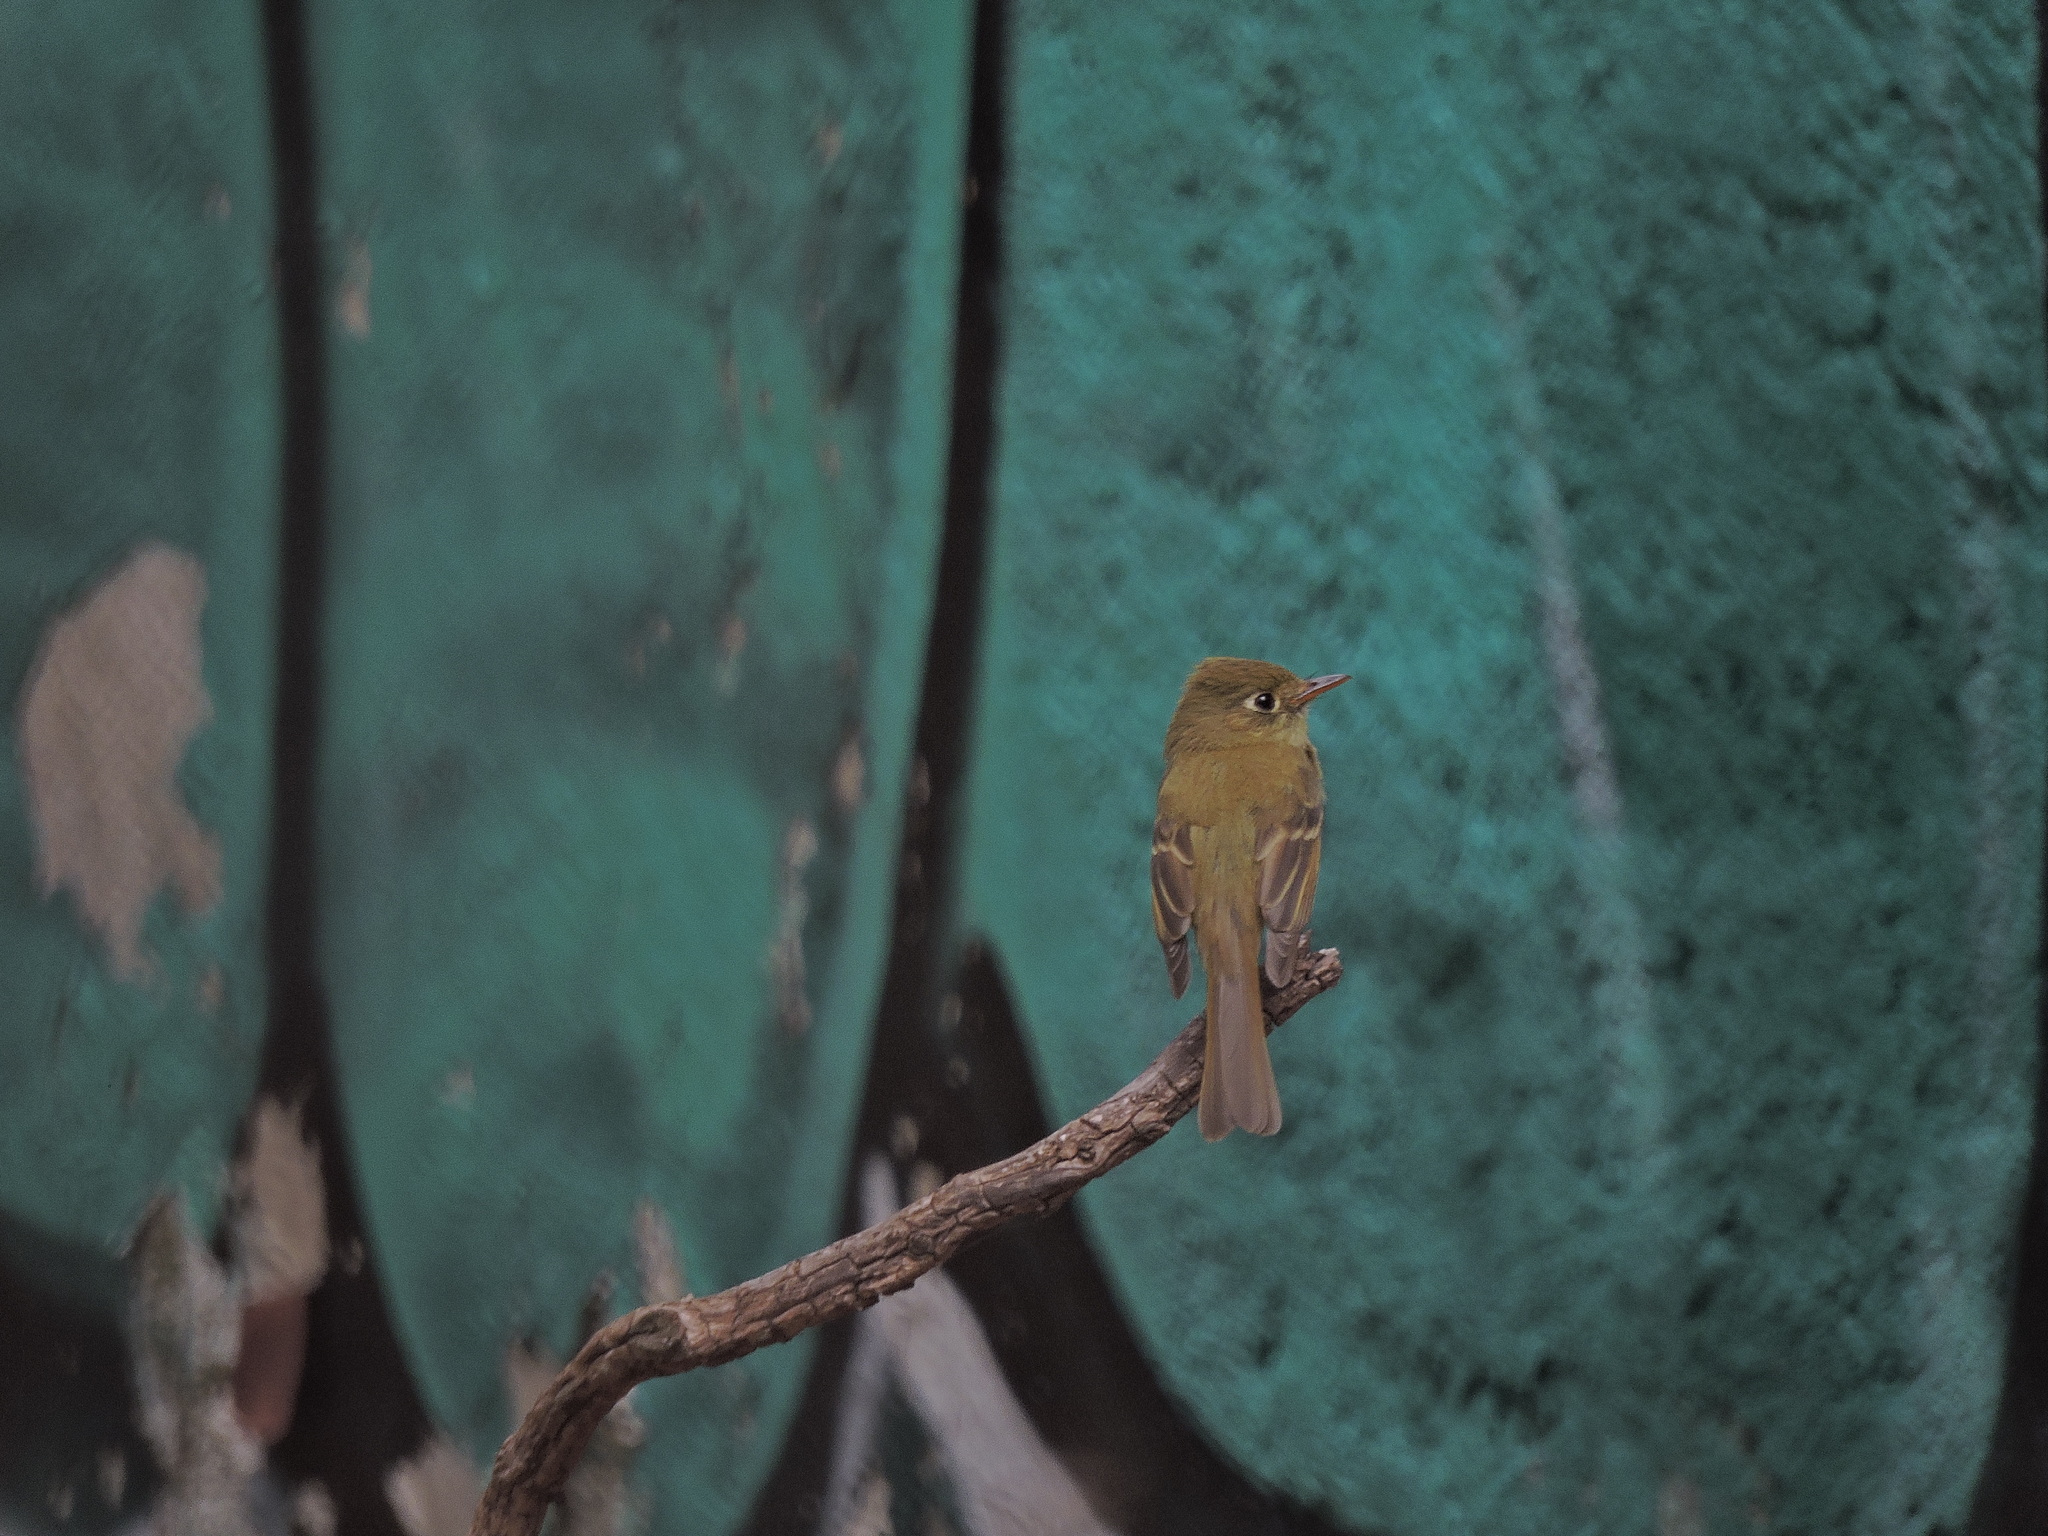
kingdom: Animalia
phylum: Chordata
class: Aves
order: Passeriformes
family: Tyrannidae
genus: Empidonax
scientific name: Empidonax difficilis
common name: Pacific-slope flycatcher
